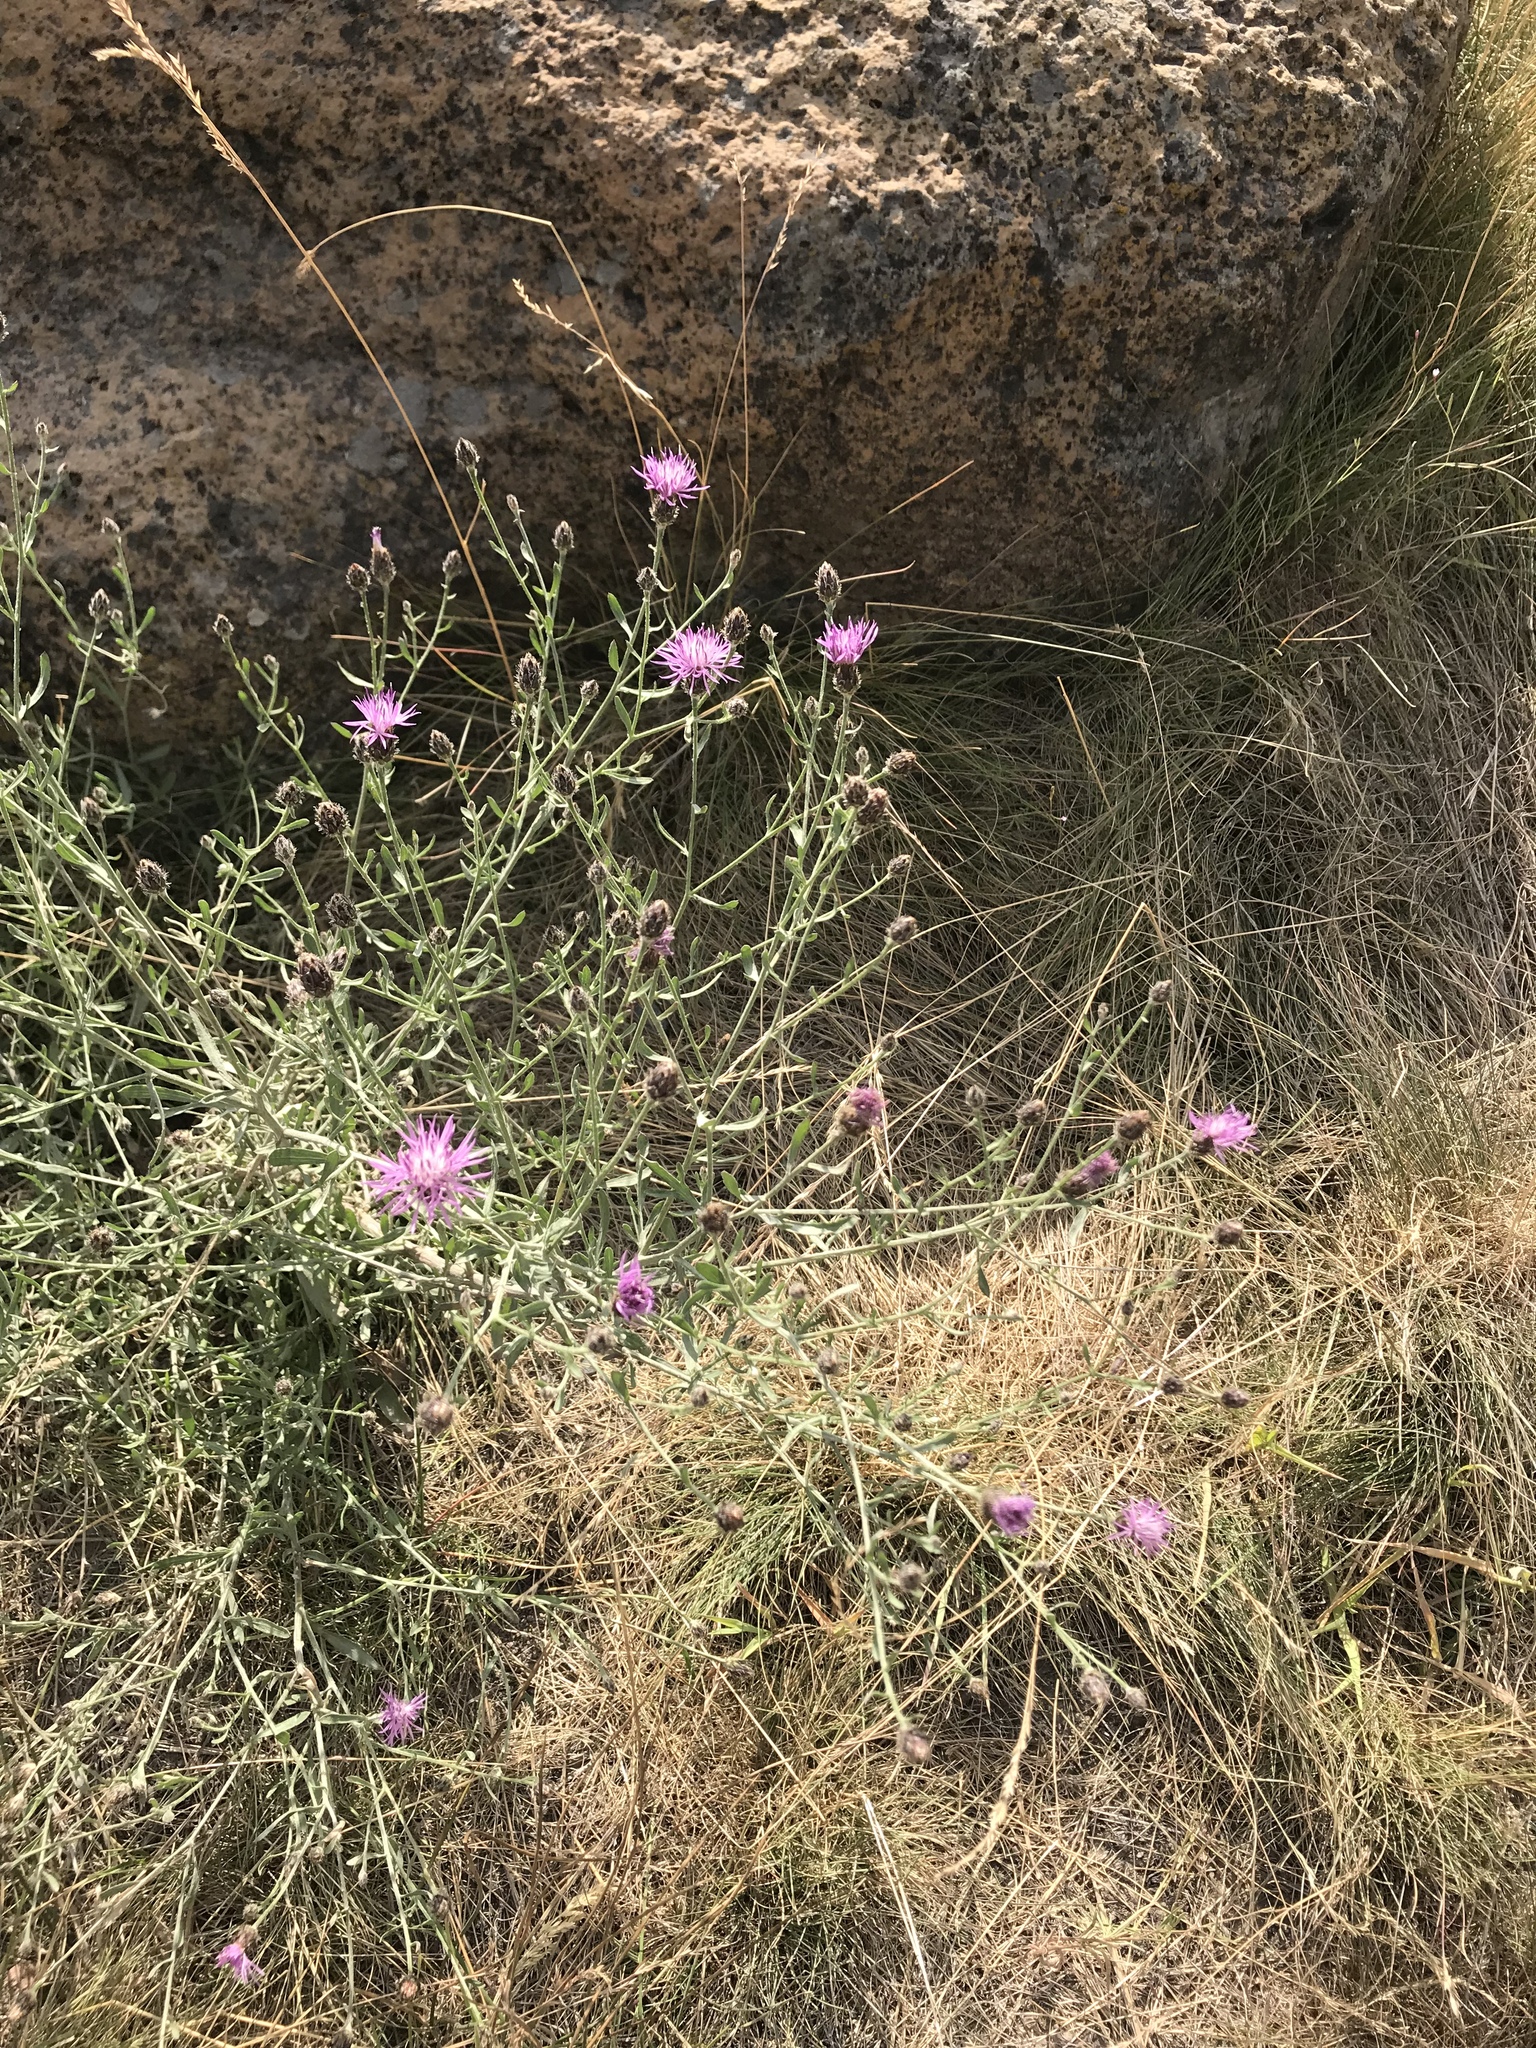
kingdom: Plantae
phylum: Tracheophyta
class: Magnoliopsida
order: Asterales
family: Asteraceae
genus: Centaurea
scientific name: Centaurea stoebe
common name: Spotted knapweed
